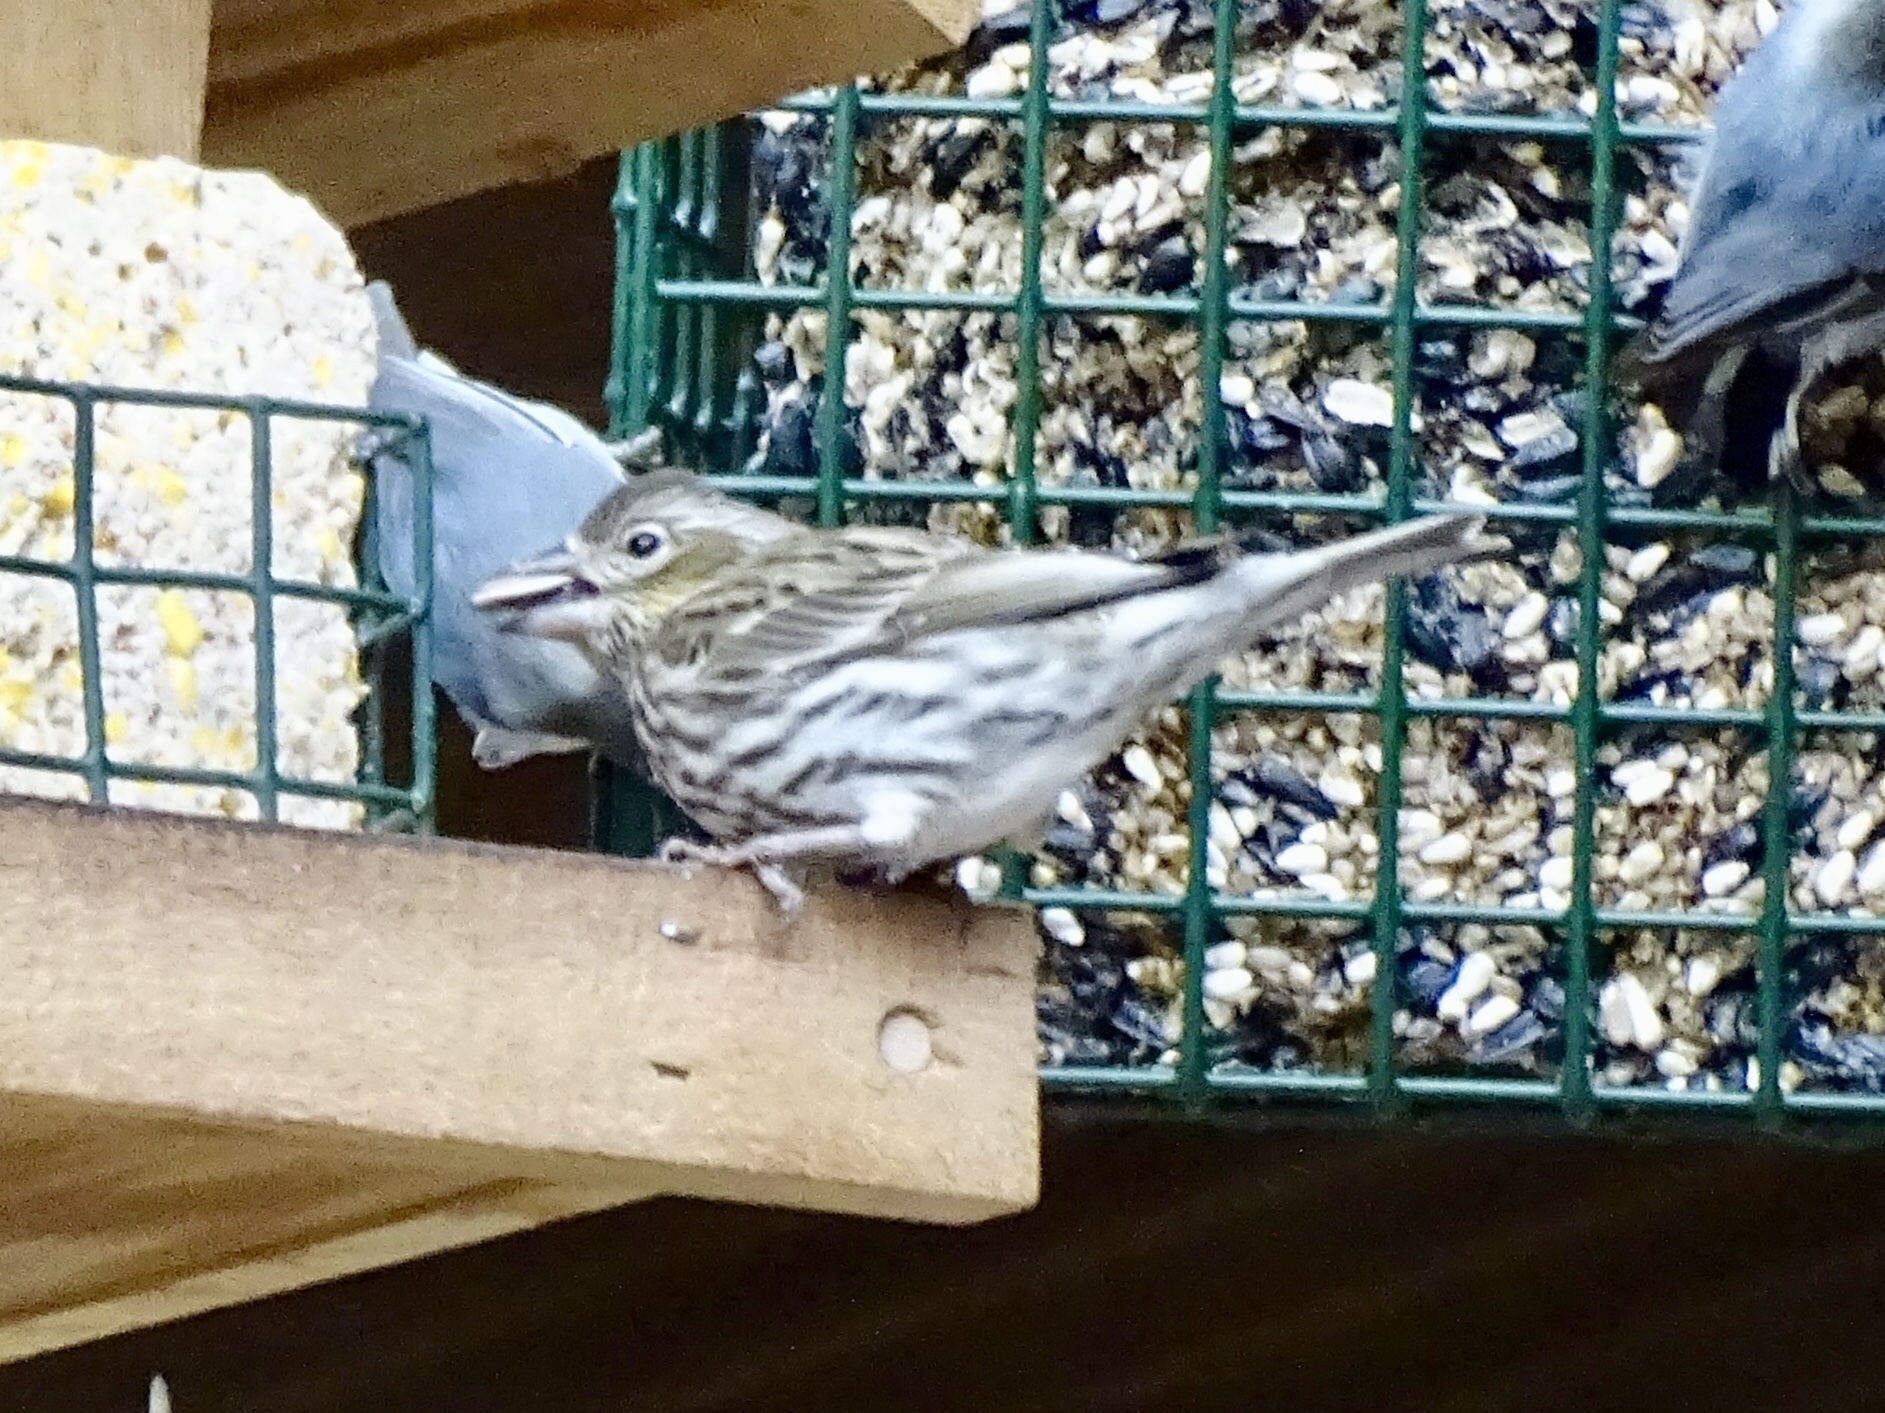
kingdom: Animalia
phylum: Chordata
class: Aves
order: Passeriformes
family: Fringillidae
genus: Haemorhous
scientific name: Haemorhous cassinii
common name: Cassin's finch
